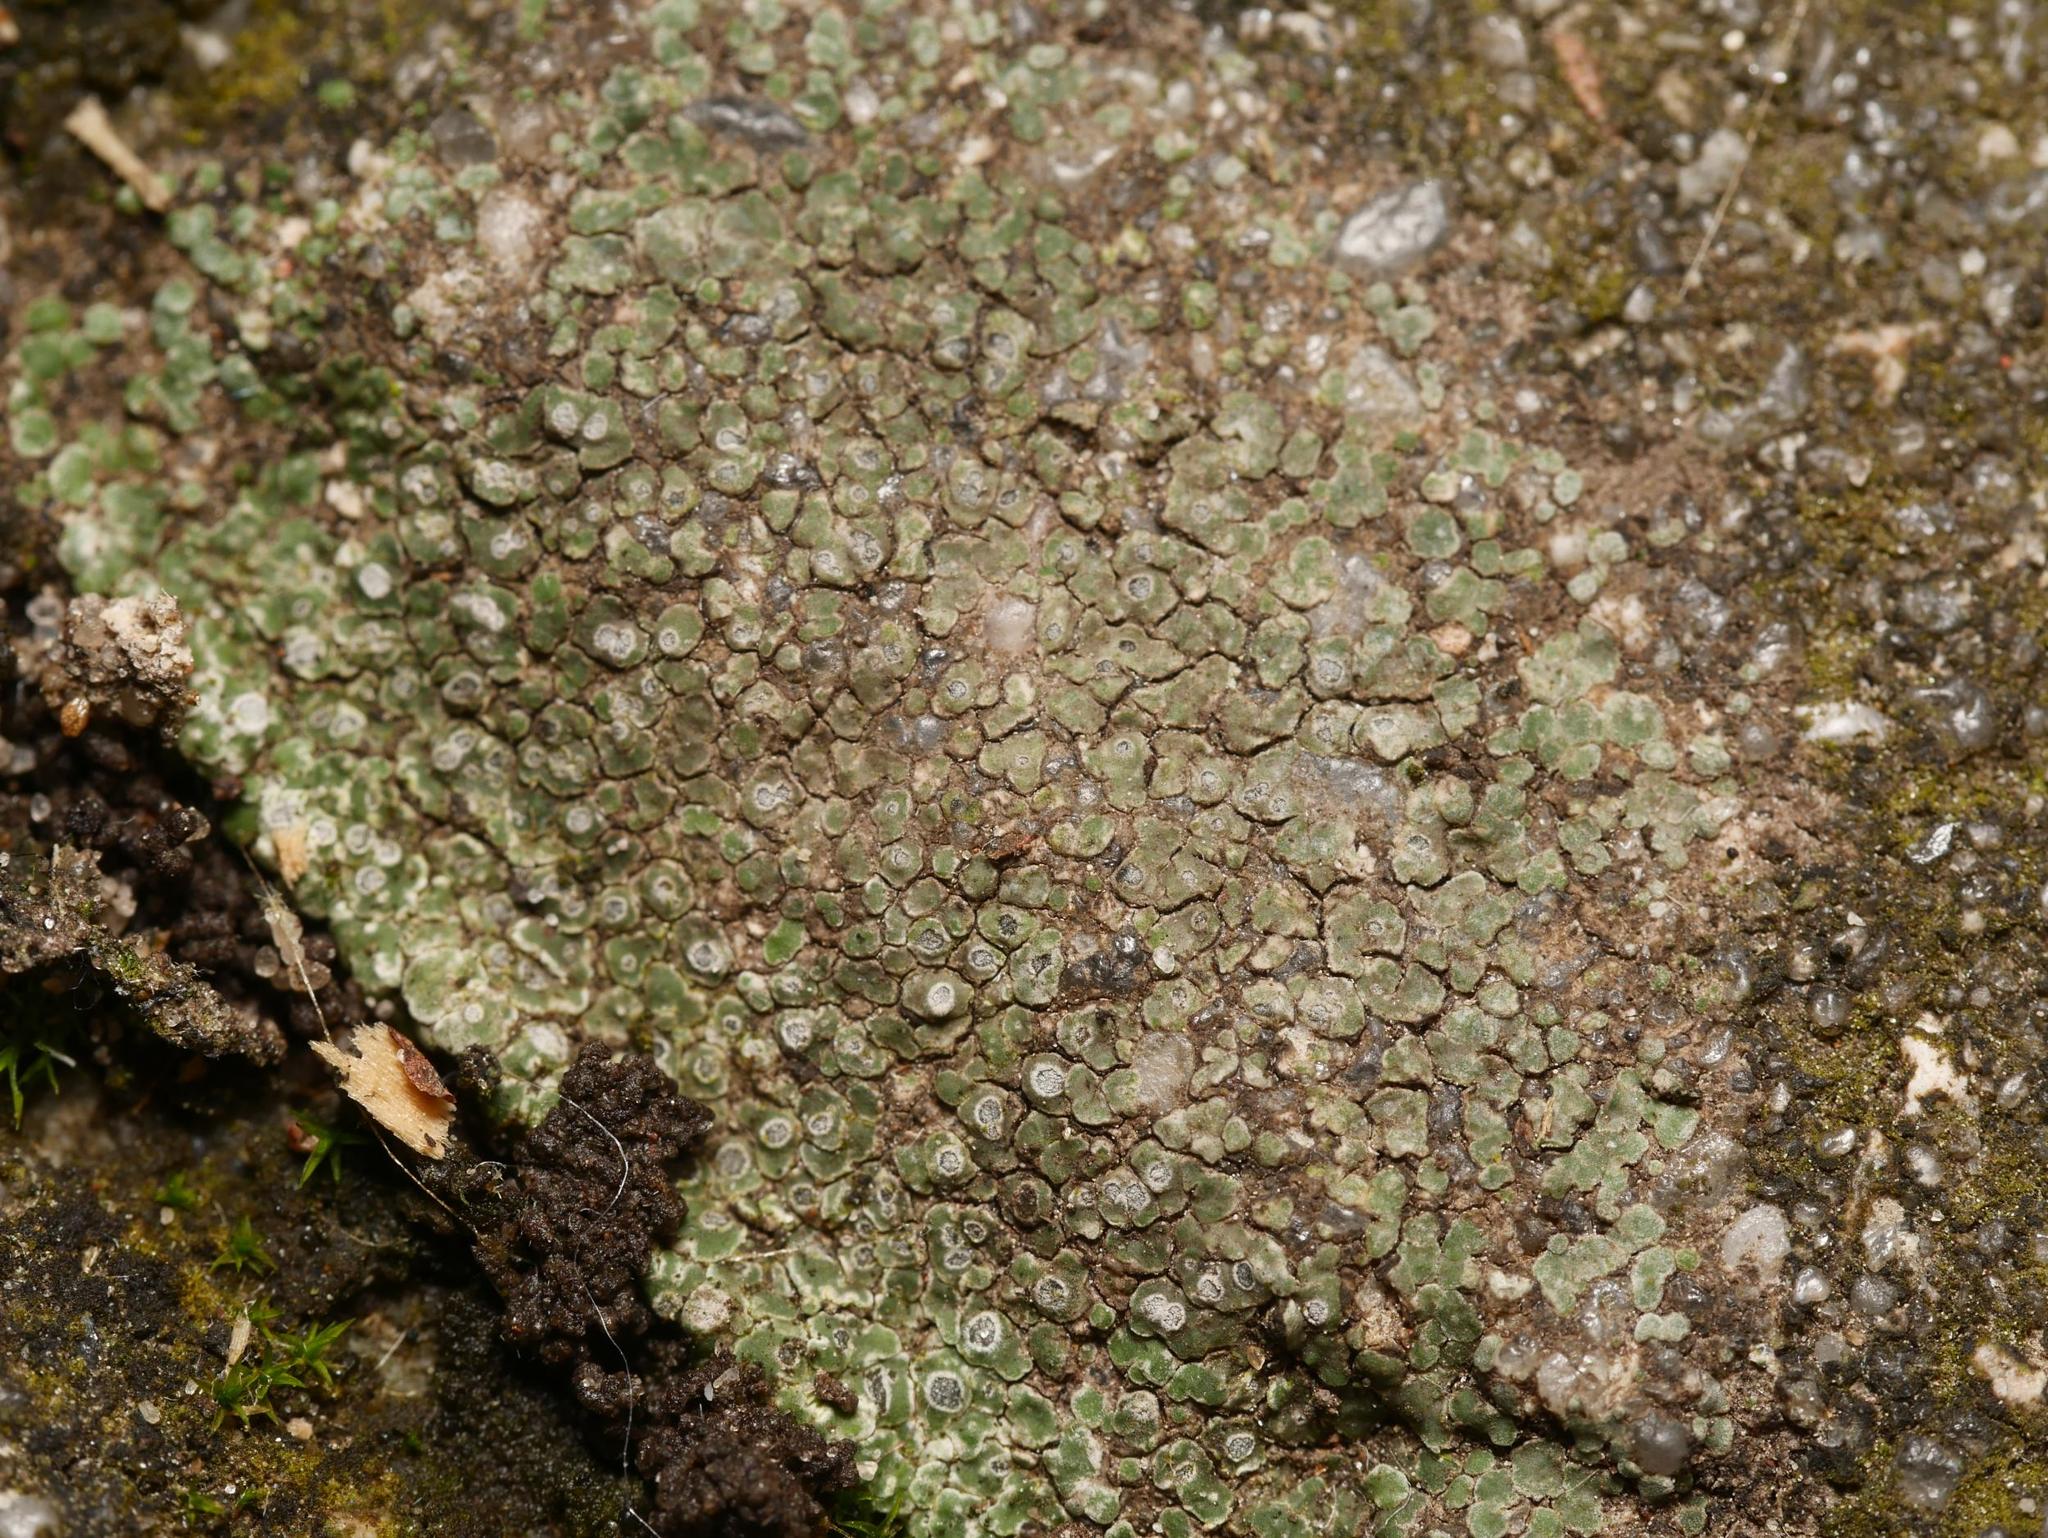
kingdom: Fungi
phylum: Ascomycota
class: Lecanoromycetes
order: Pertusariales
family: Megasporaceae
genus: Circinaria
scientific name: Circinaria contorta
